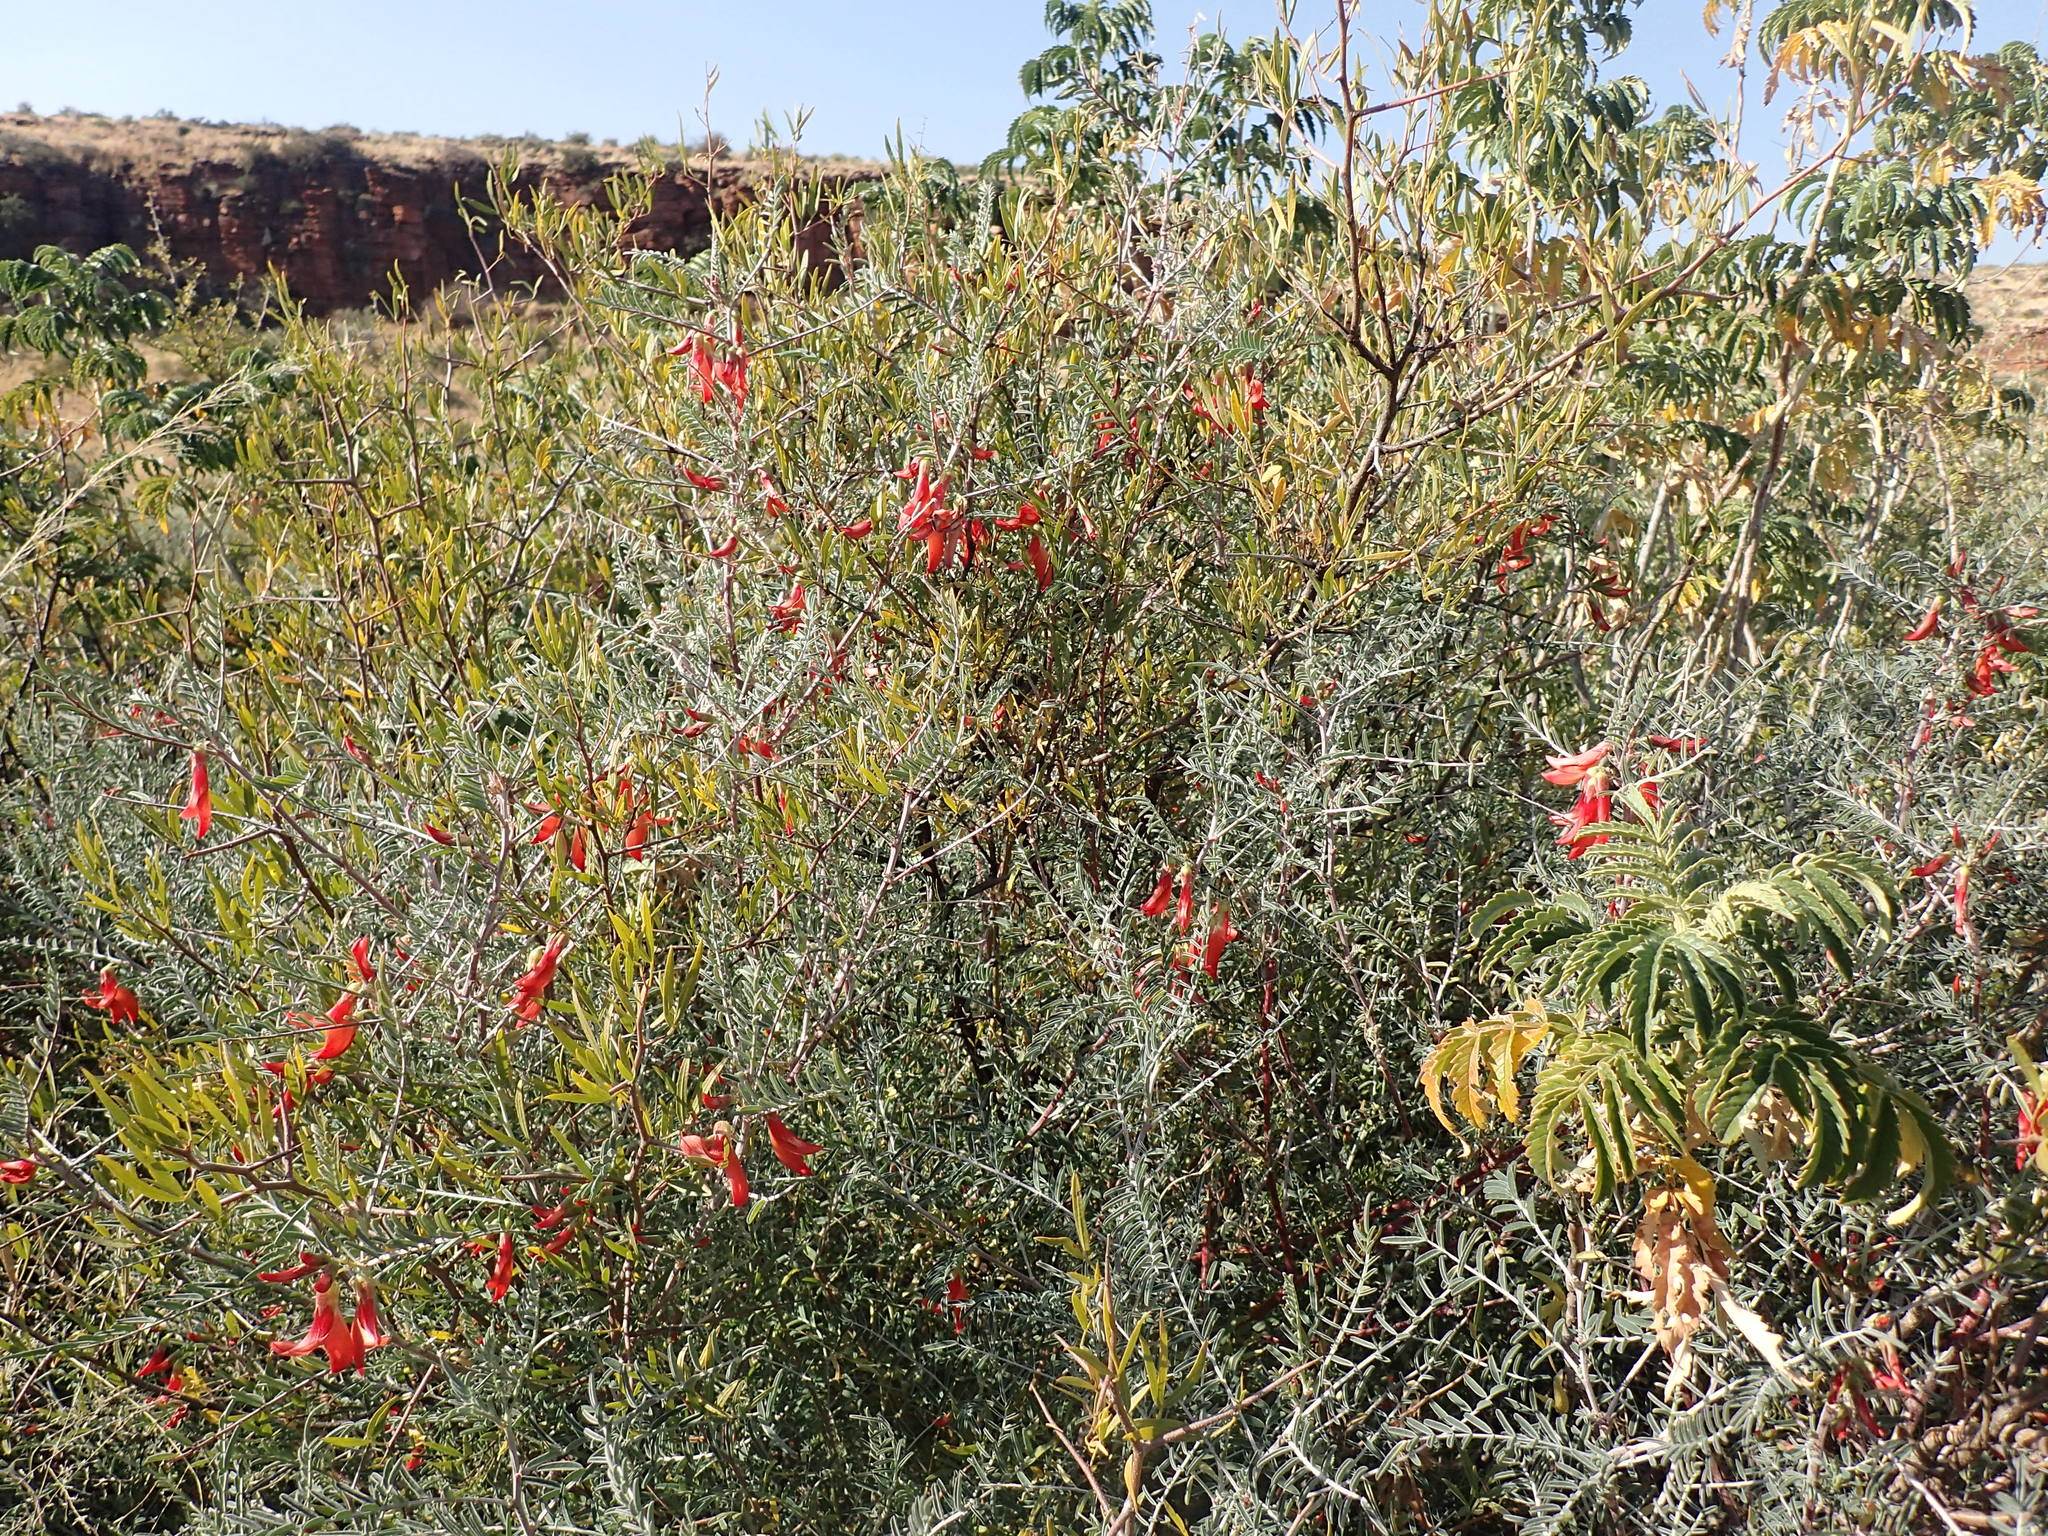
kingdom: Plantae
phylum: Tracheophyta
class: Magnoliopsida
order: Fabales
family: Fabaceae
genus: Lessertia
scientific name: Lessertia frutescens
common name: Balloon-pea
